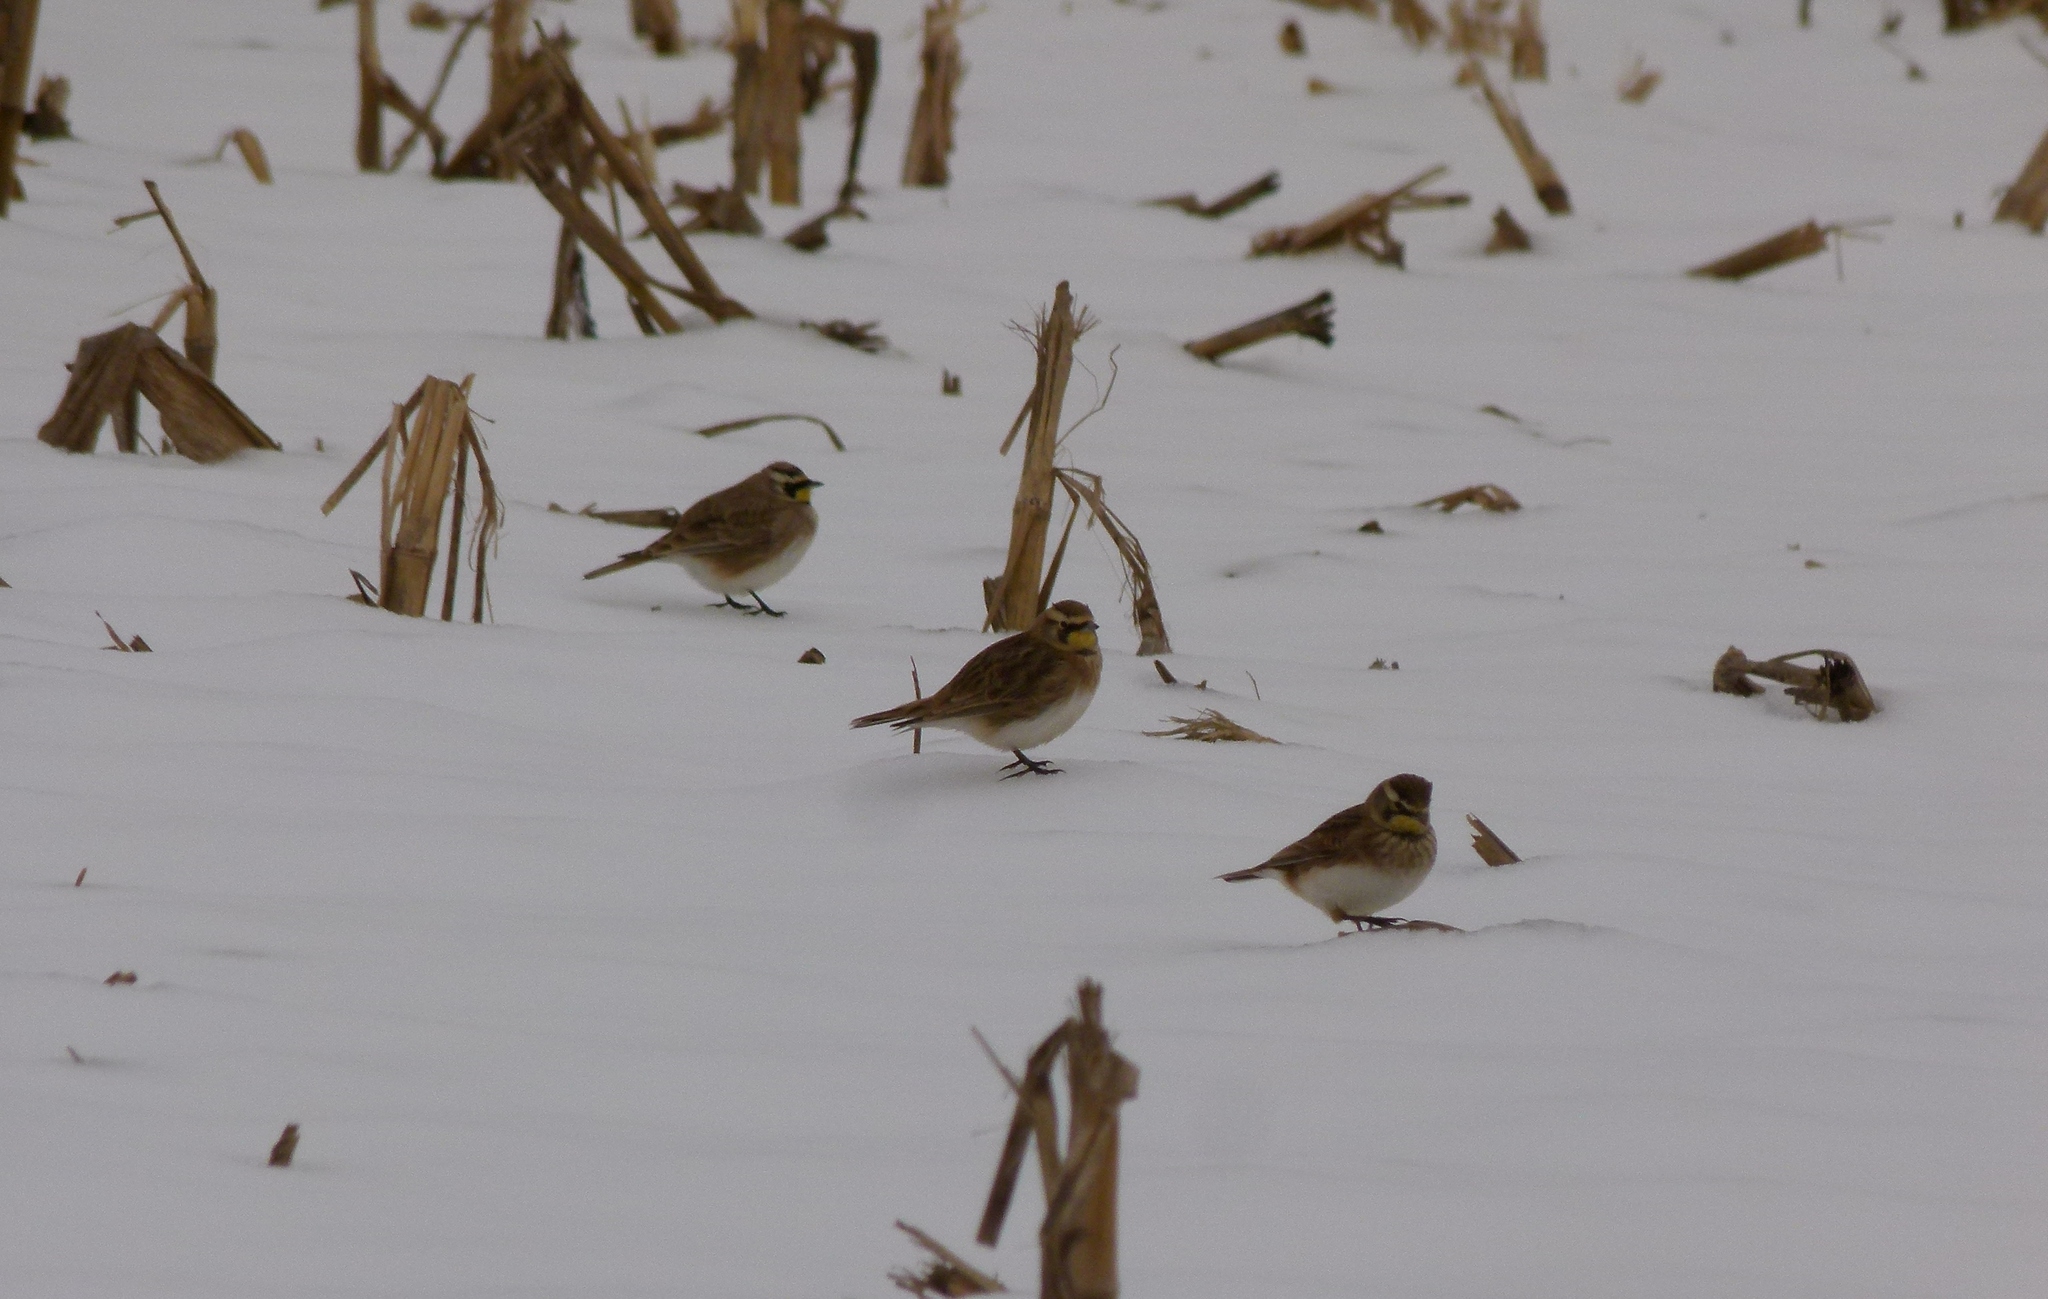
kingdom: Animalia
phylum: Chordata
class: Aves
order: Passeriformes
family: Alaudidae
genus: Eremophila
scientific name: Eremophila alpestris
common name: Horned lark
